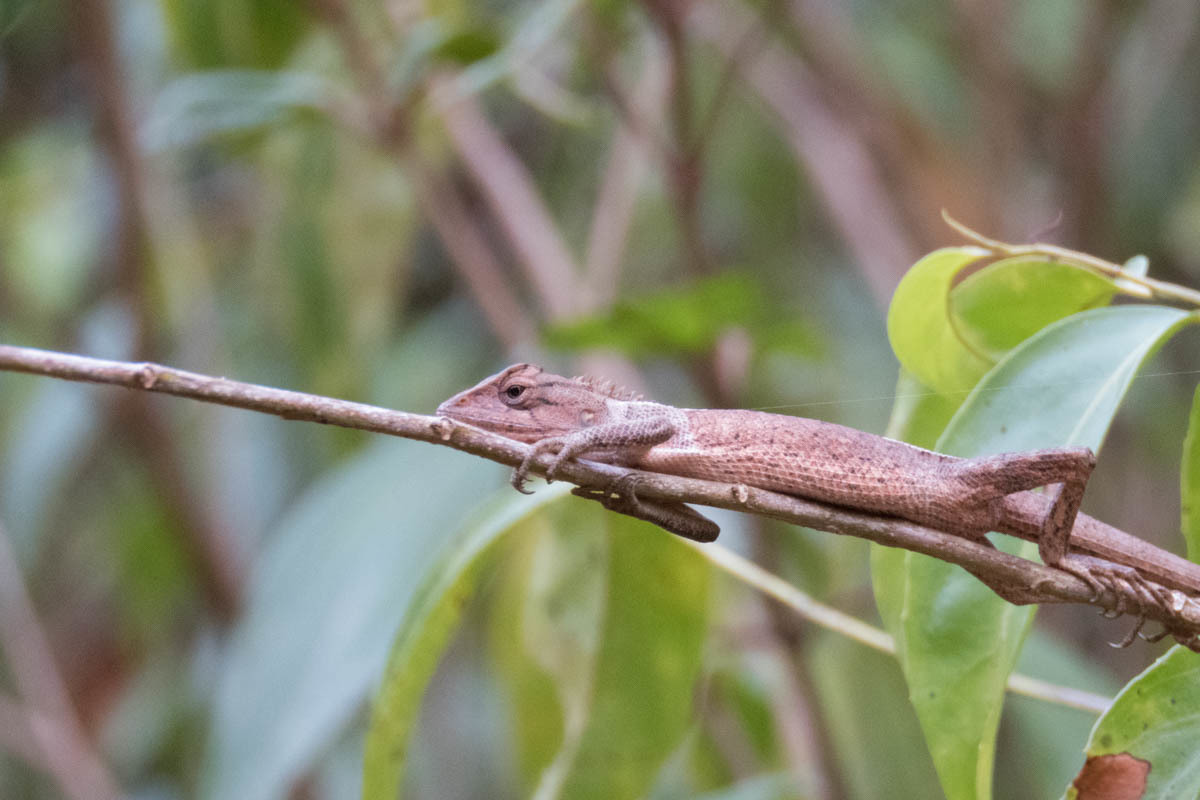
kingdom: Animalia
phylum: Chordata
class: Squamata
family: Agamidae
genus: Calotes
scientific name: Calotes versicolor
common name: Oriental garden lizard
